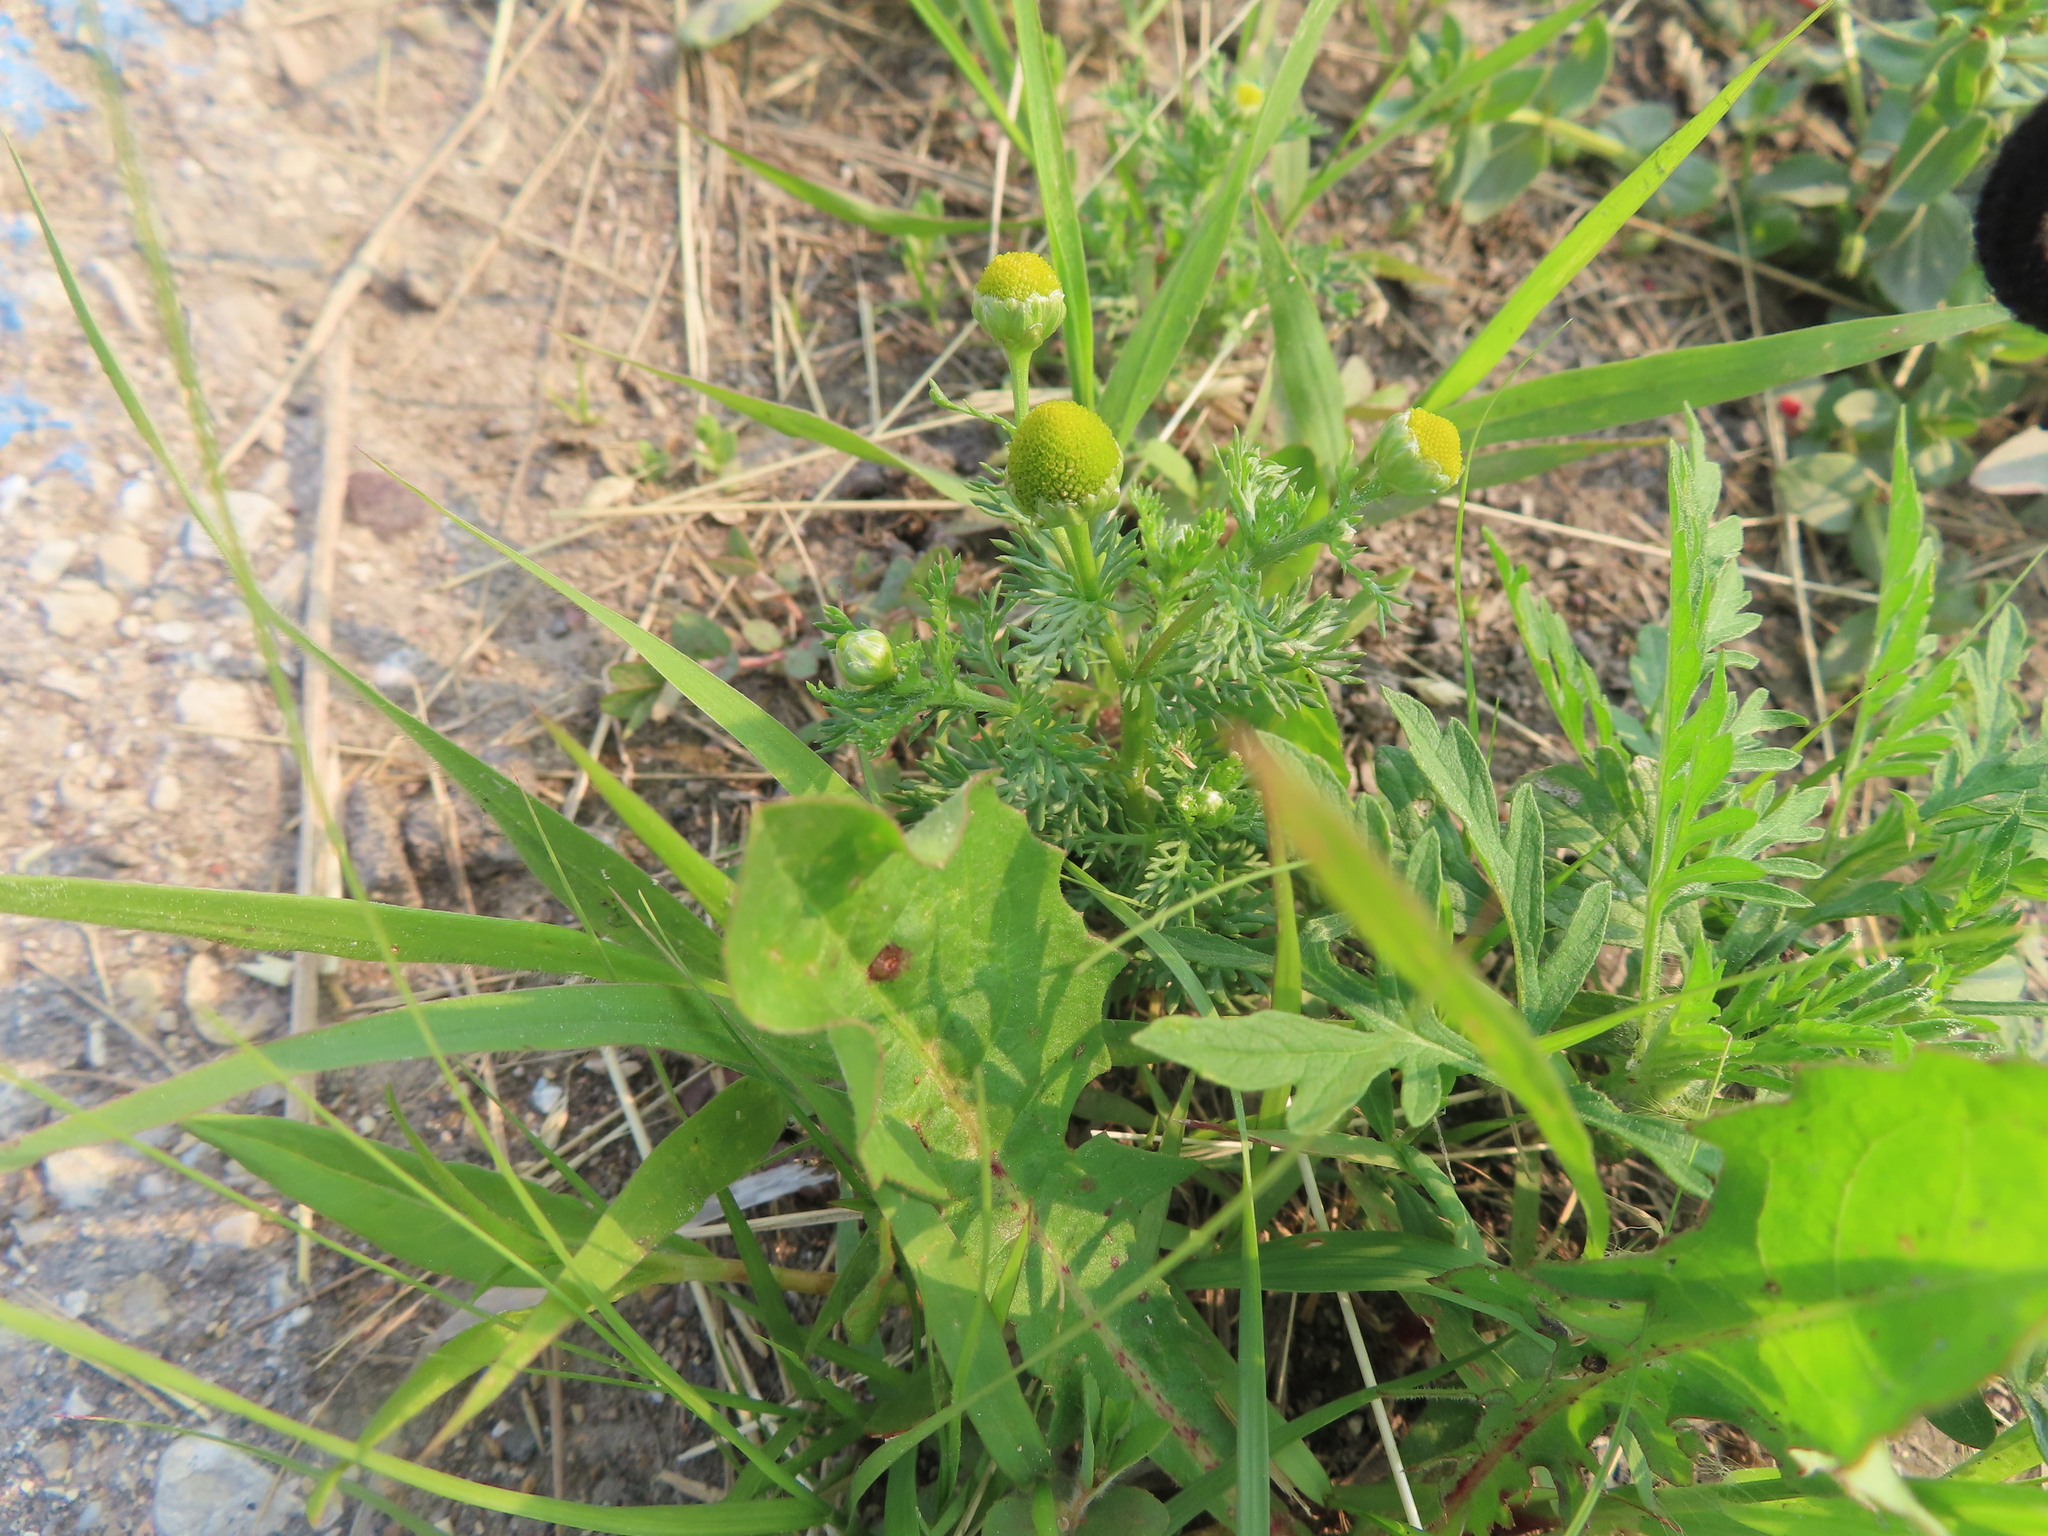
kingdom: Plantae
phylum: Tracheophyta
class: Magnoliopsida
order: Asterales
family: Asteraceae
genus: Matricaria
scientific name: Matricaria discoidea
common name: Disc mayweed
